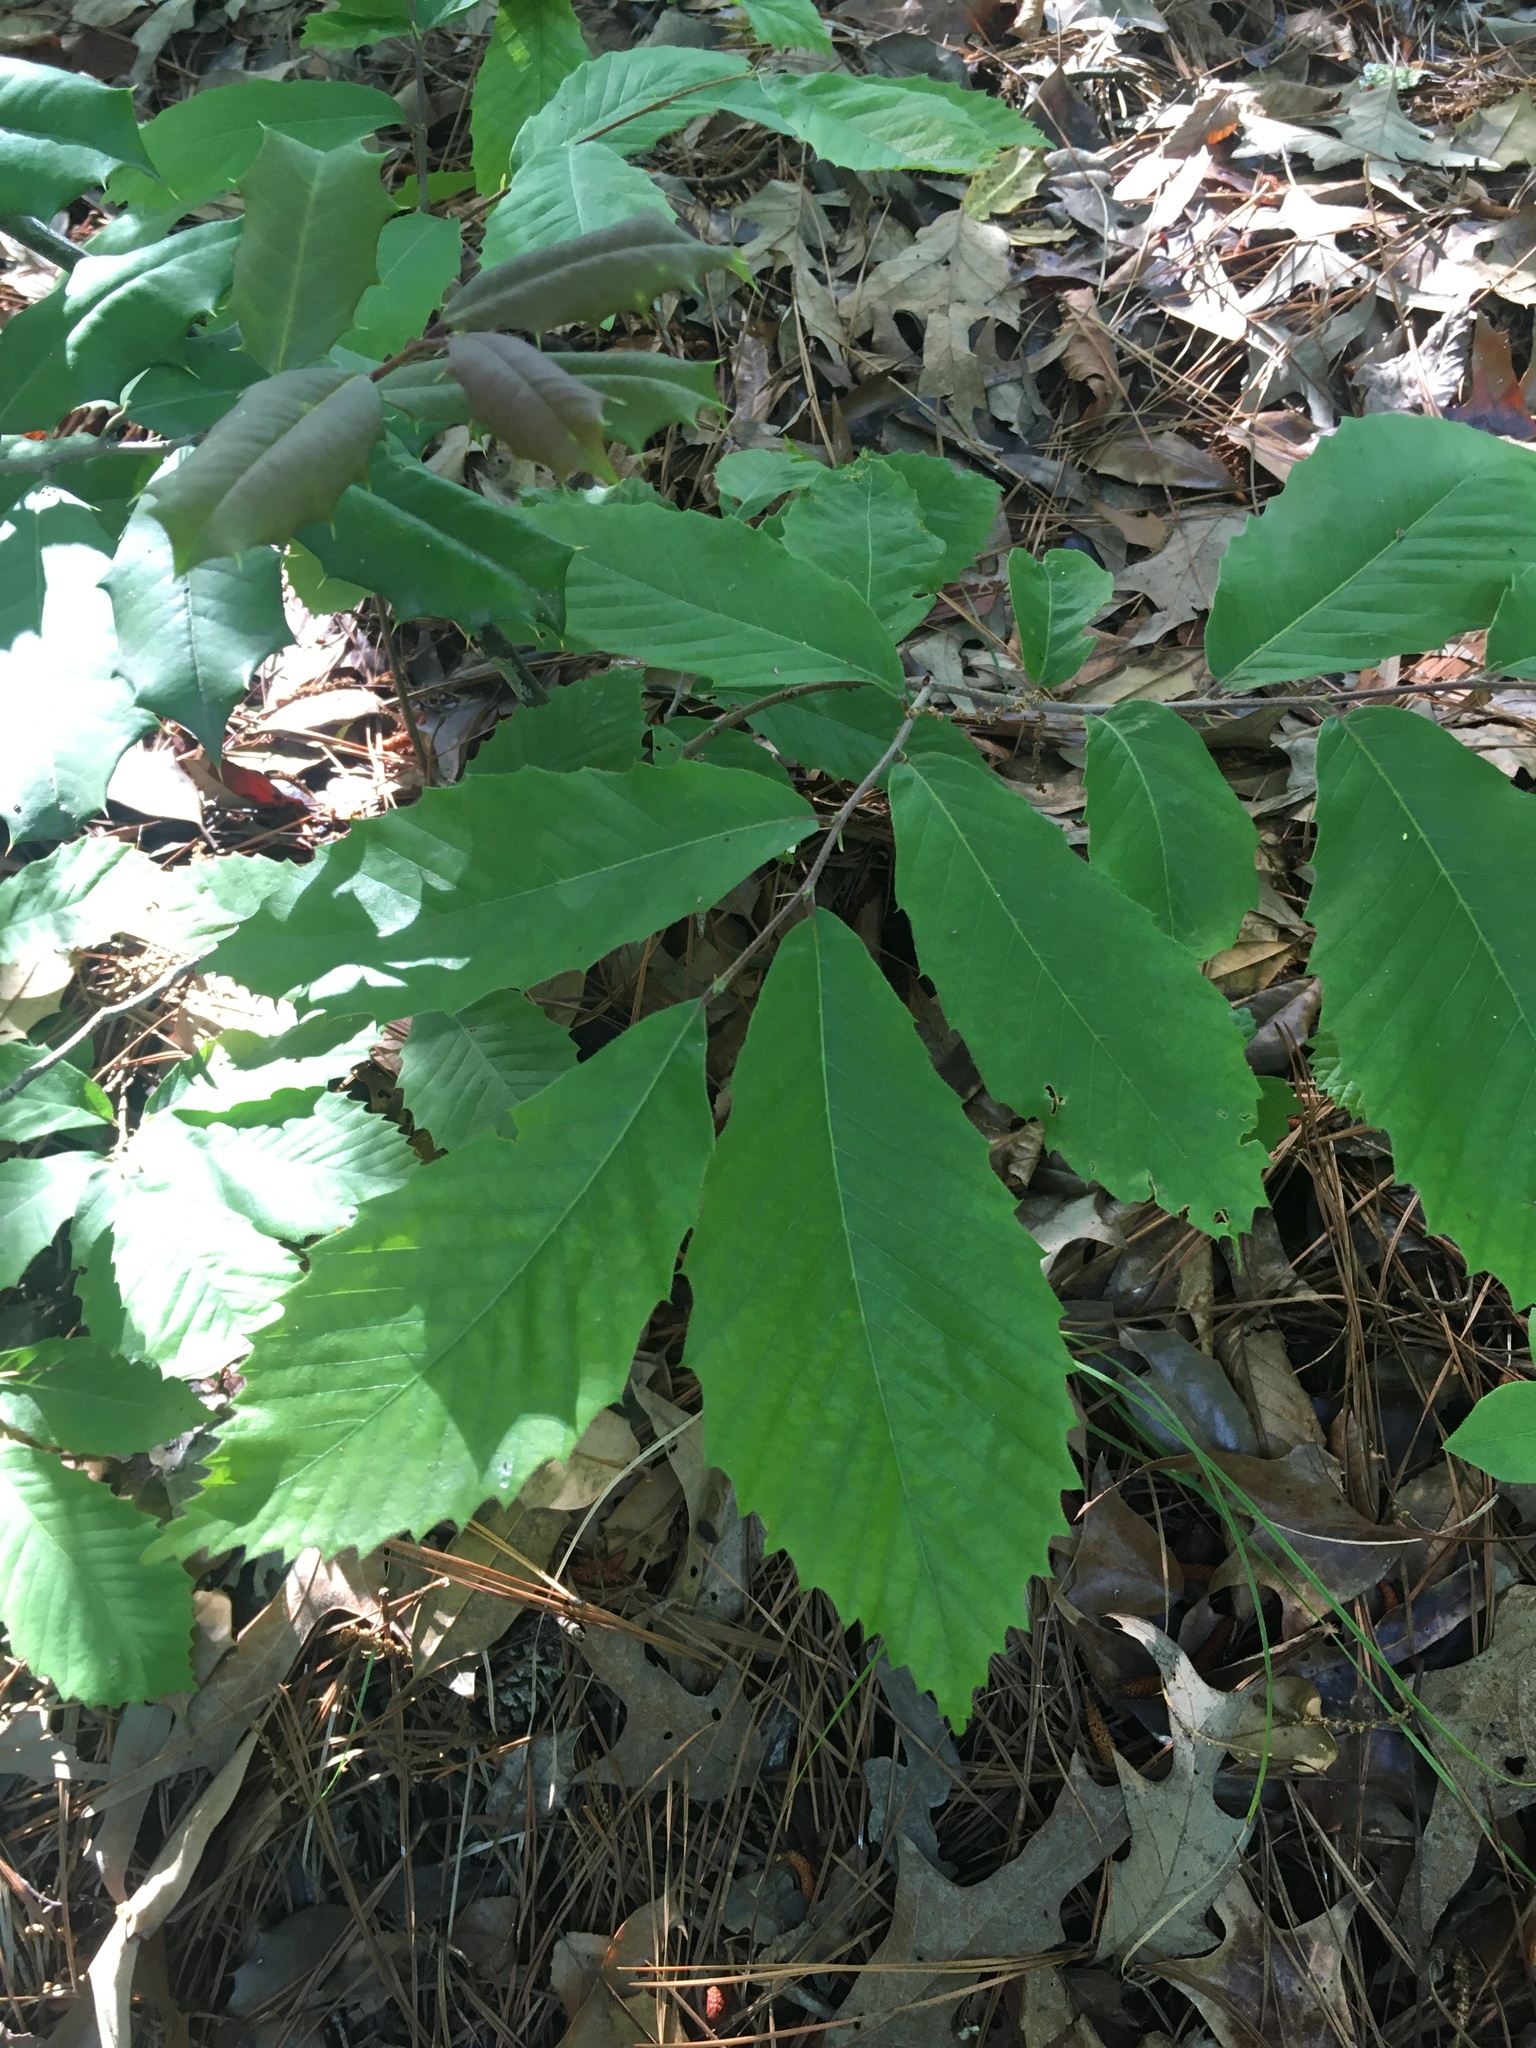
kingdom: Plantae
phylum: Tracheophyta
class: Magnoliopsida
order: Fagales
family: Fagaceae
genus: Castanea
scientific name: Castanea pumila
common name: Chinkapin
